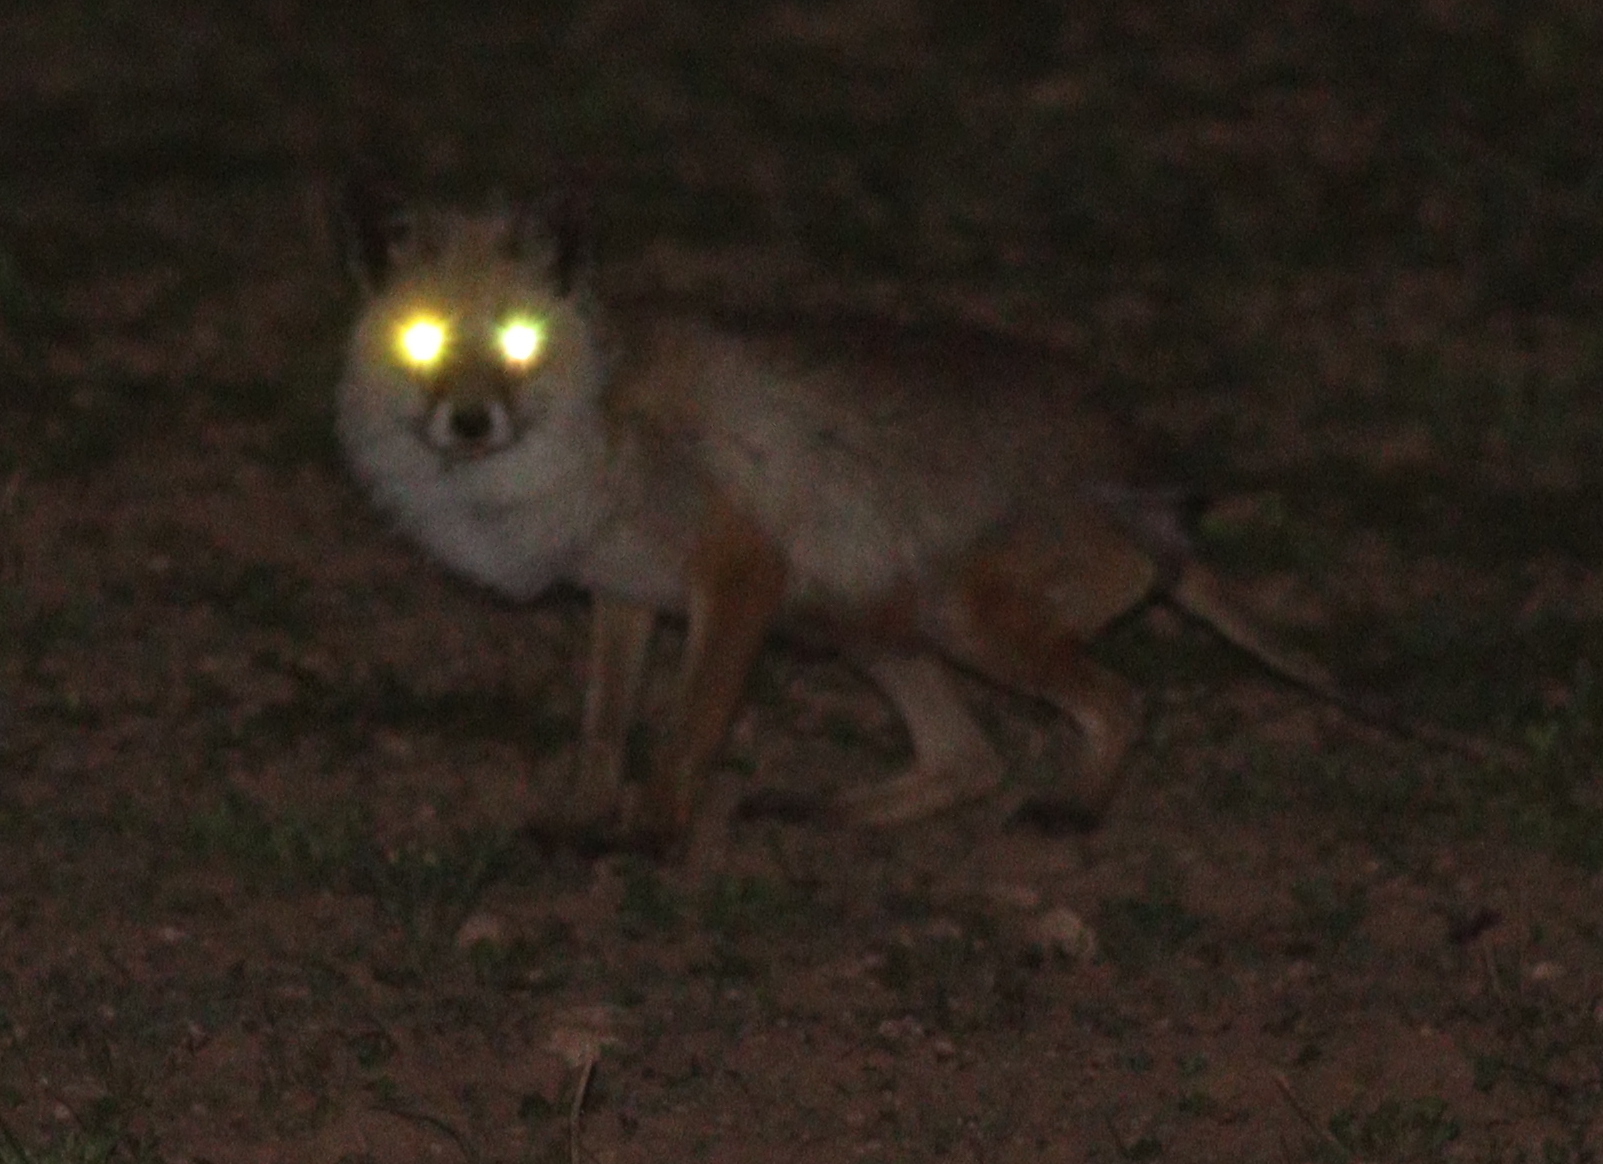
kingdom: Animalia
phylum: Chordata
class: Mammalia
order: Carnivora
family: Canidae
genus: Vulpes
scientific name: Vulpes vulpes
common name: Red fox
